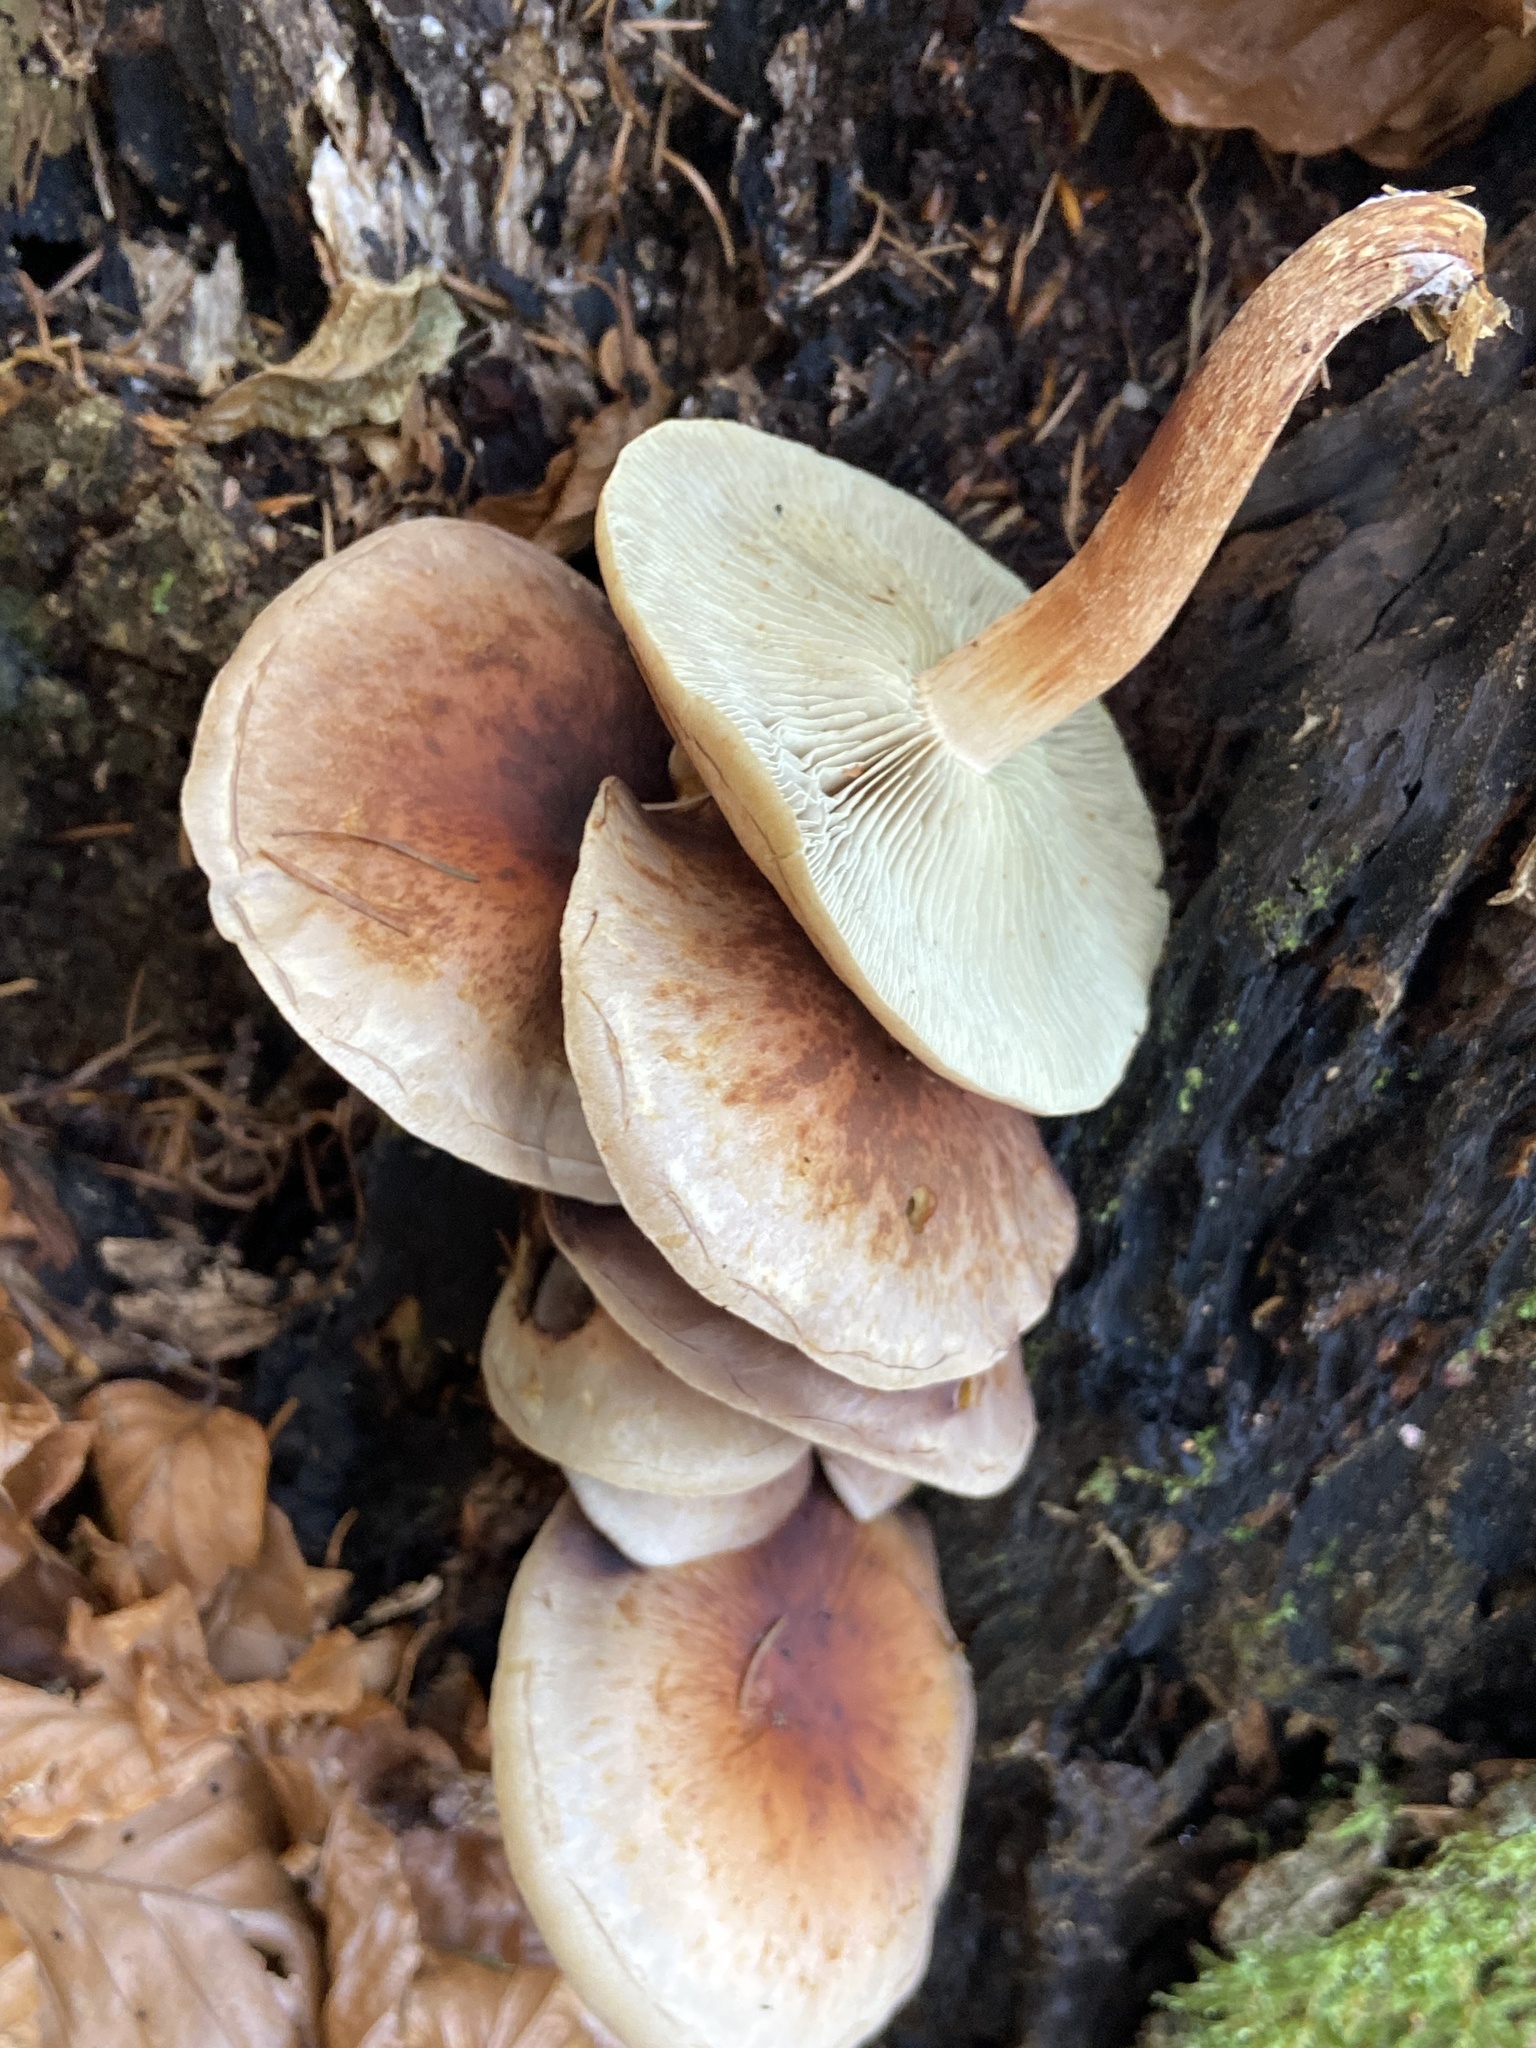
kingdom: Fungi
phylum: Basidiomycota
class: Agaricomycetes
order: Agaricales
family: Strophariaceae
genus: Hypholoma
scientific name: Hypholoma lateritium
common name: Brick caps
